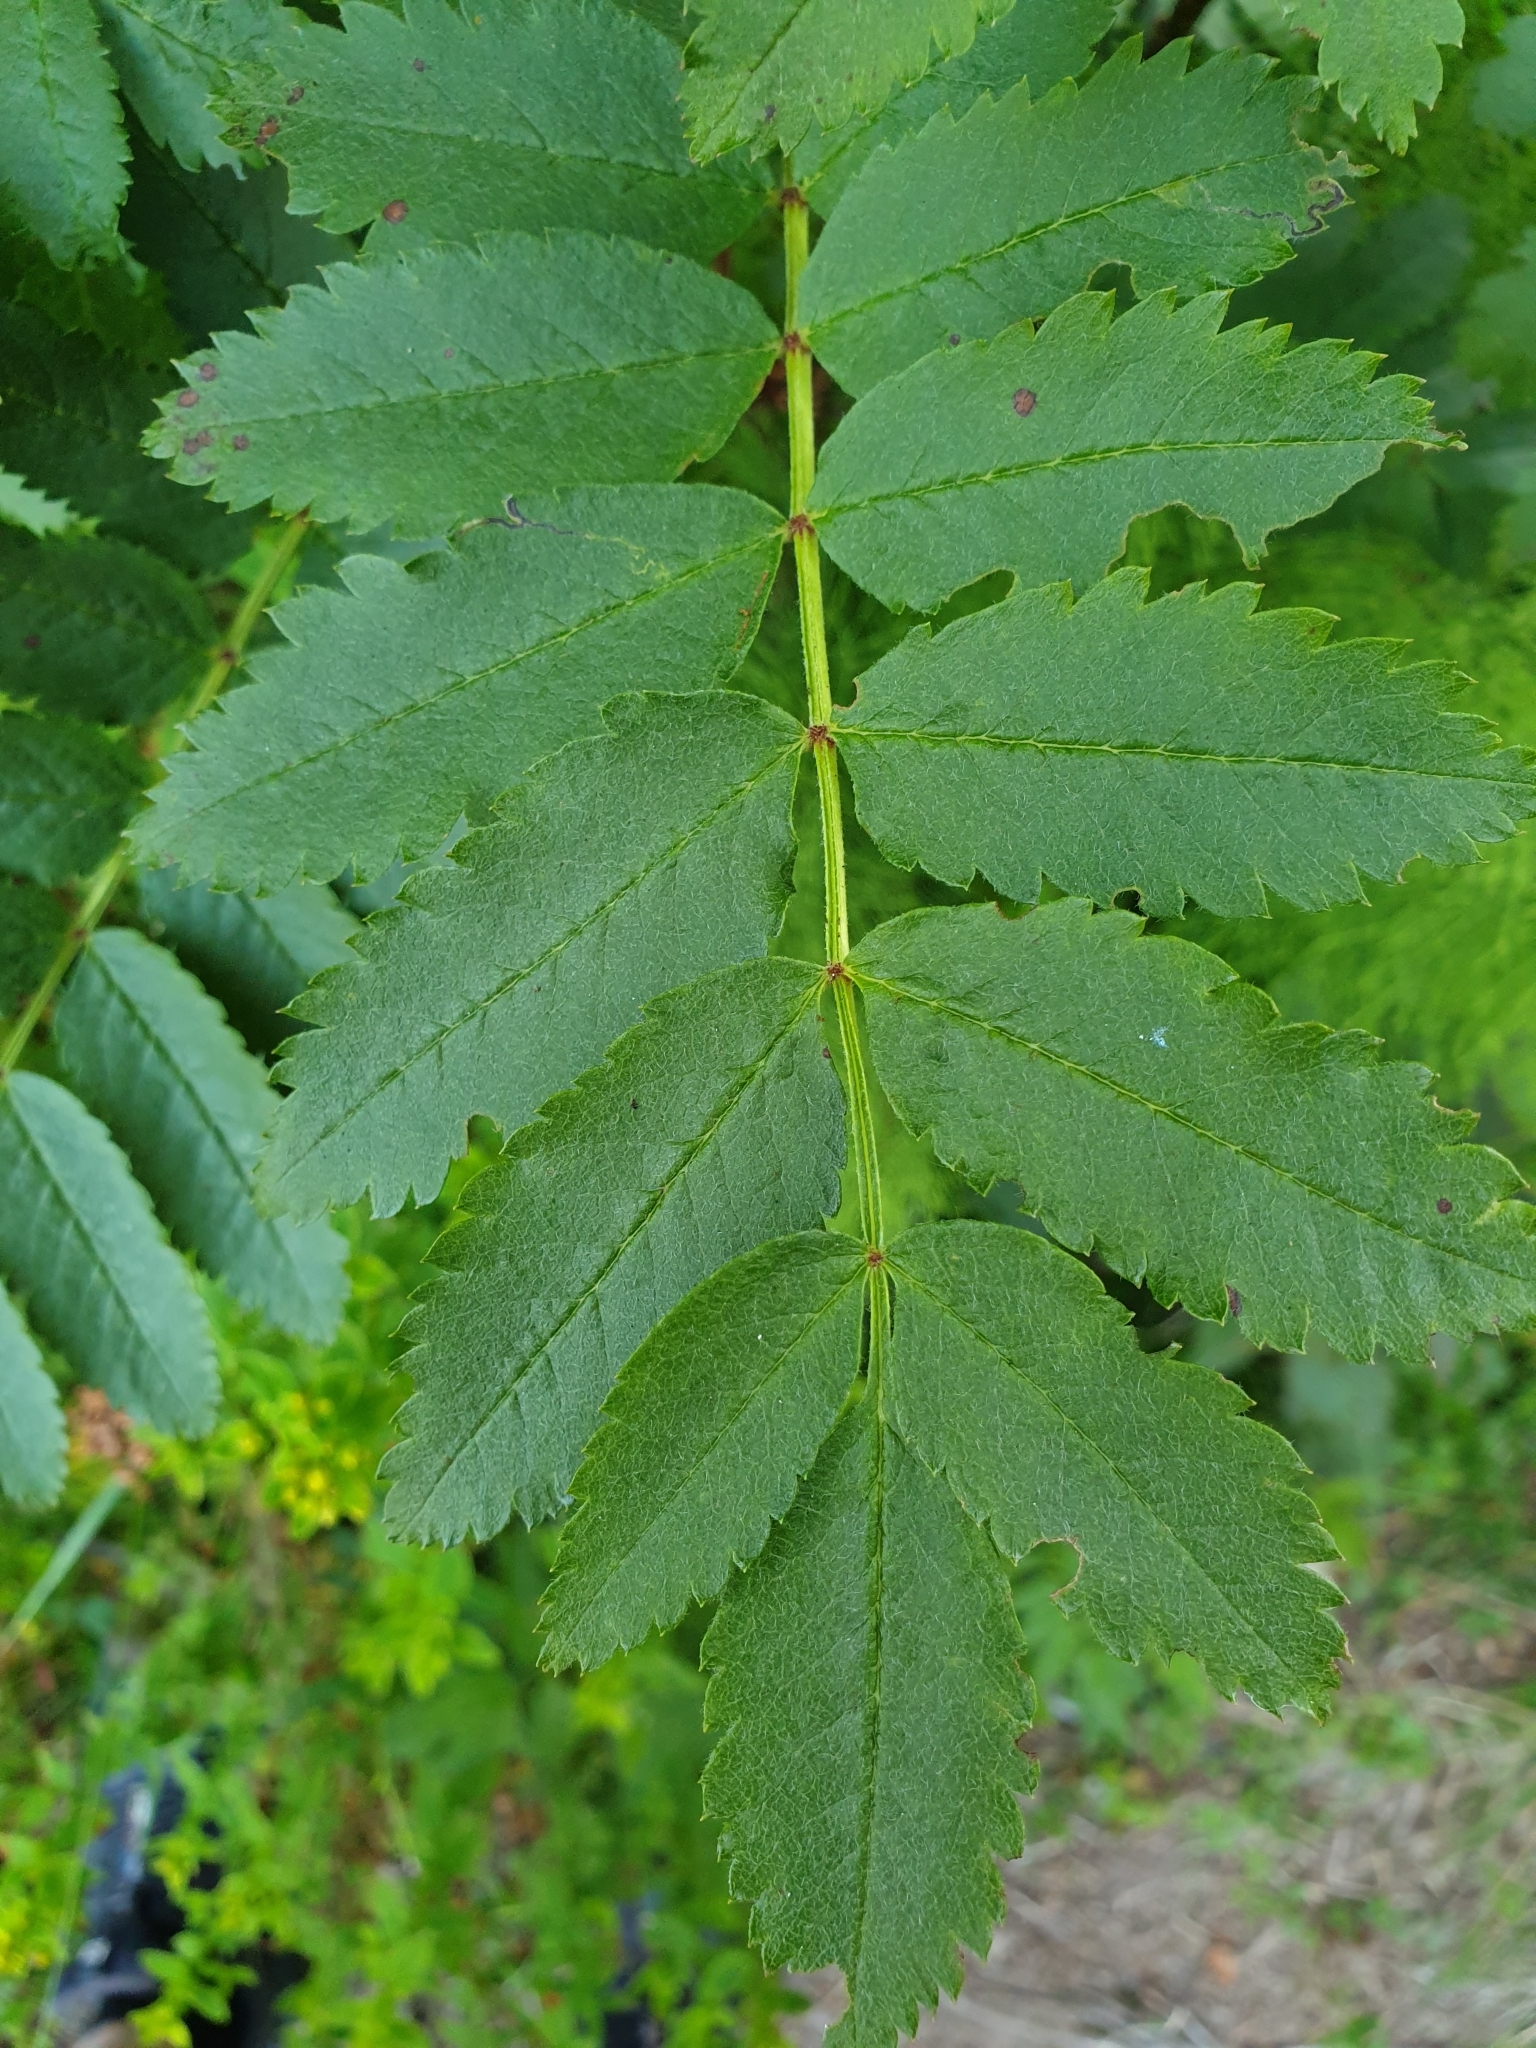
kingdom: Plantae
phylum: Tracheophyta
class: Magnoliopsida
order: Rosales
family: Rosaceae
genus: Sorbus
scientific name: Sorbus aucuparia
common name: Rowan
